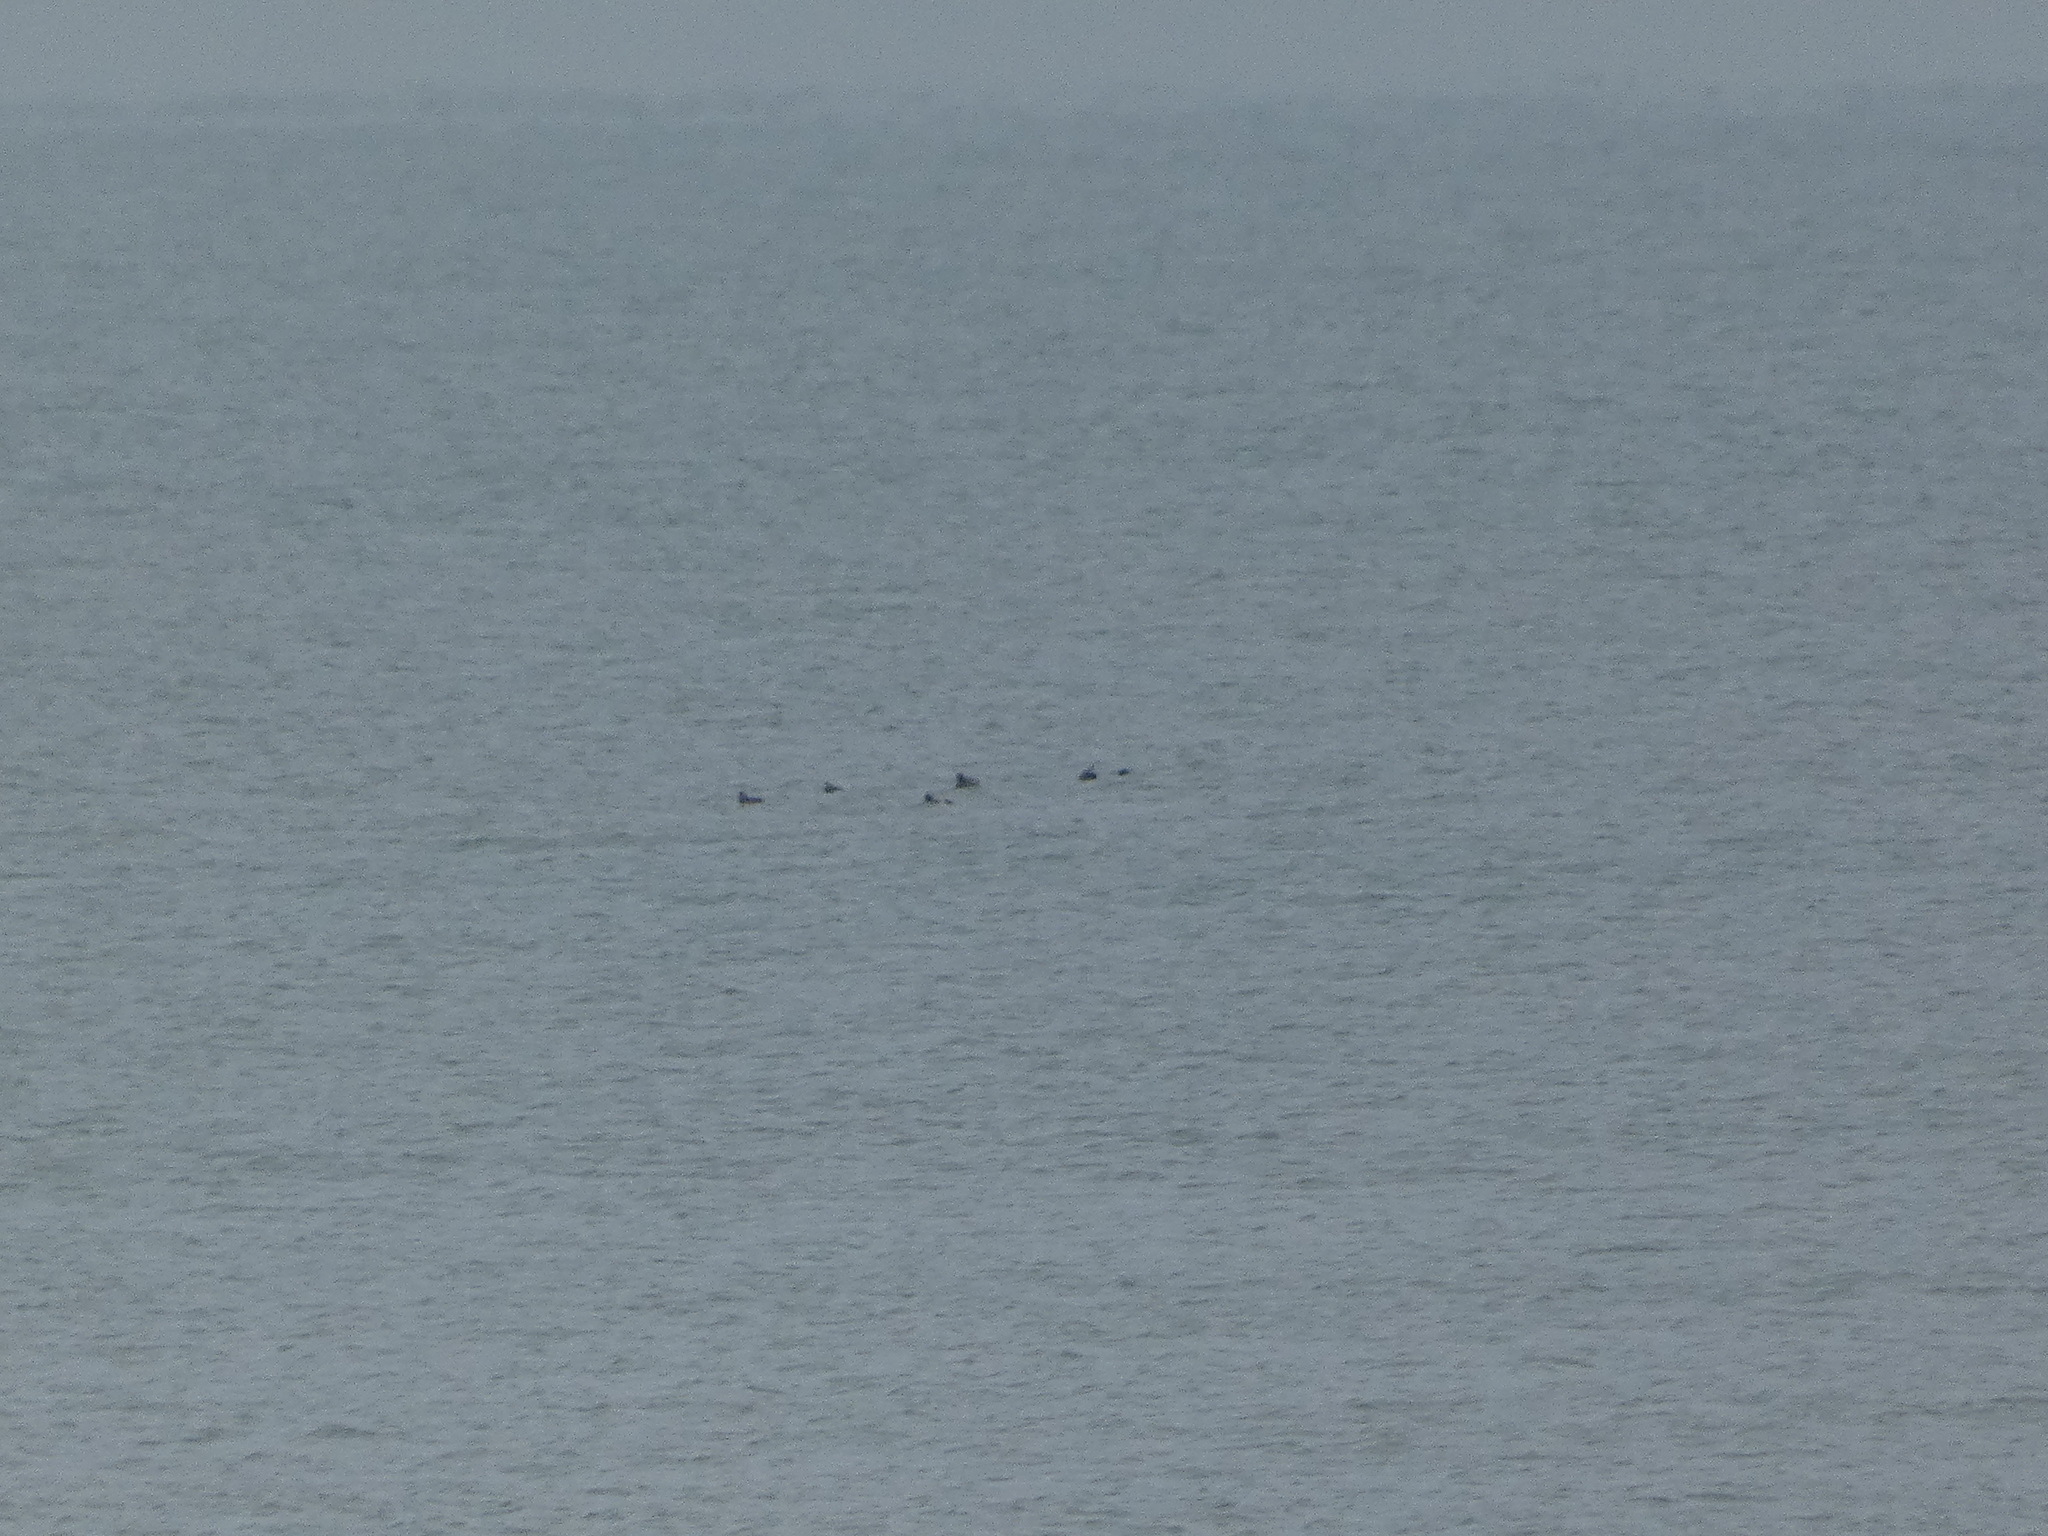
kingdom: Animalia
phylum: Chordata
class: Aves
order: Anseriformes
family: Anatidae
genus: Aythya
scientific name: Aythya marila
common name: Greater scaup
